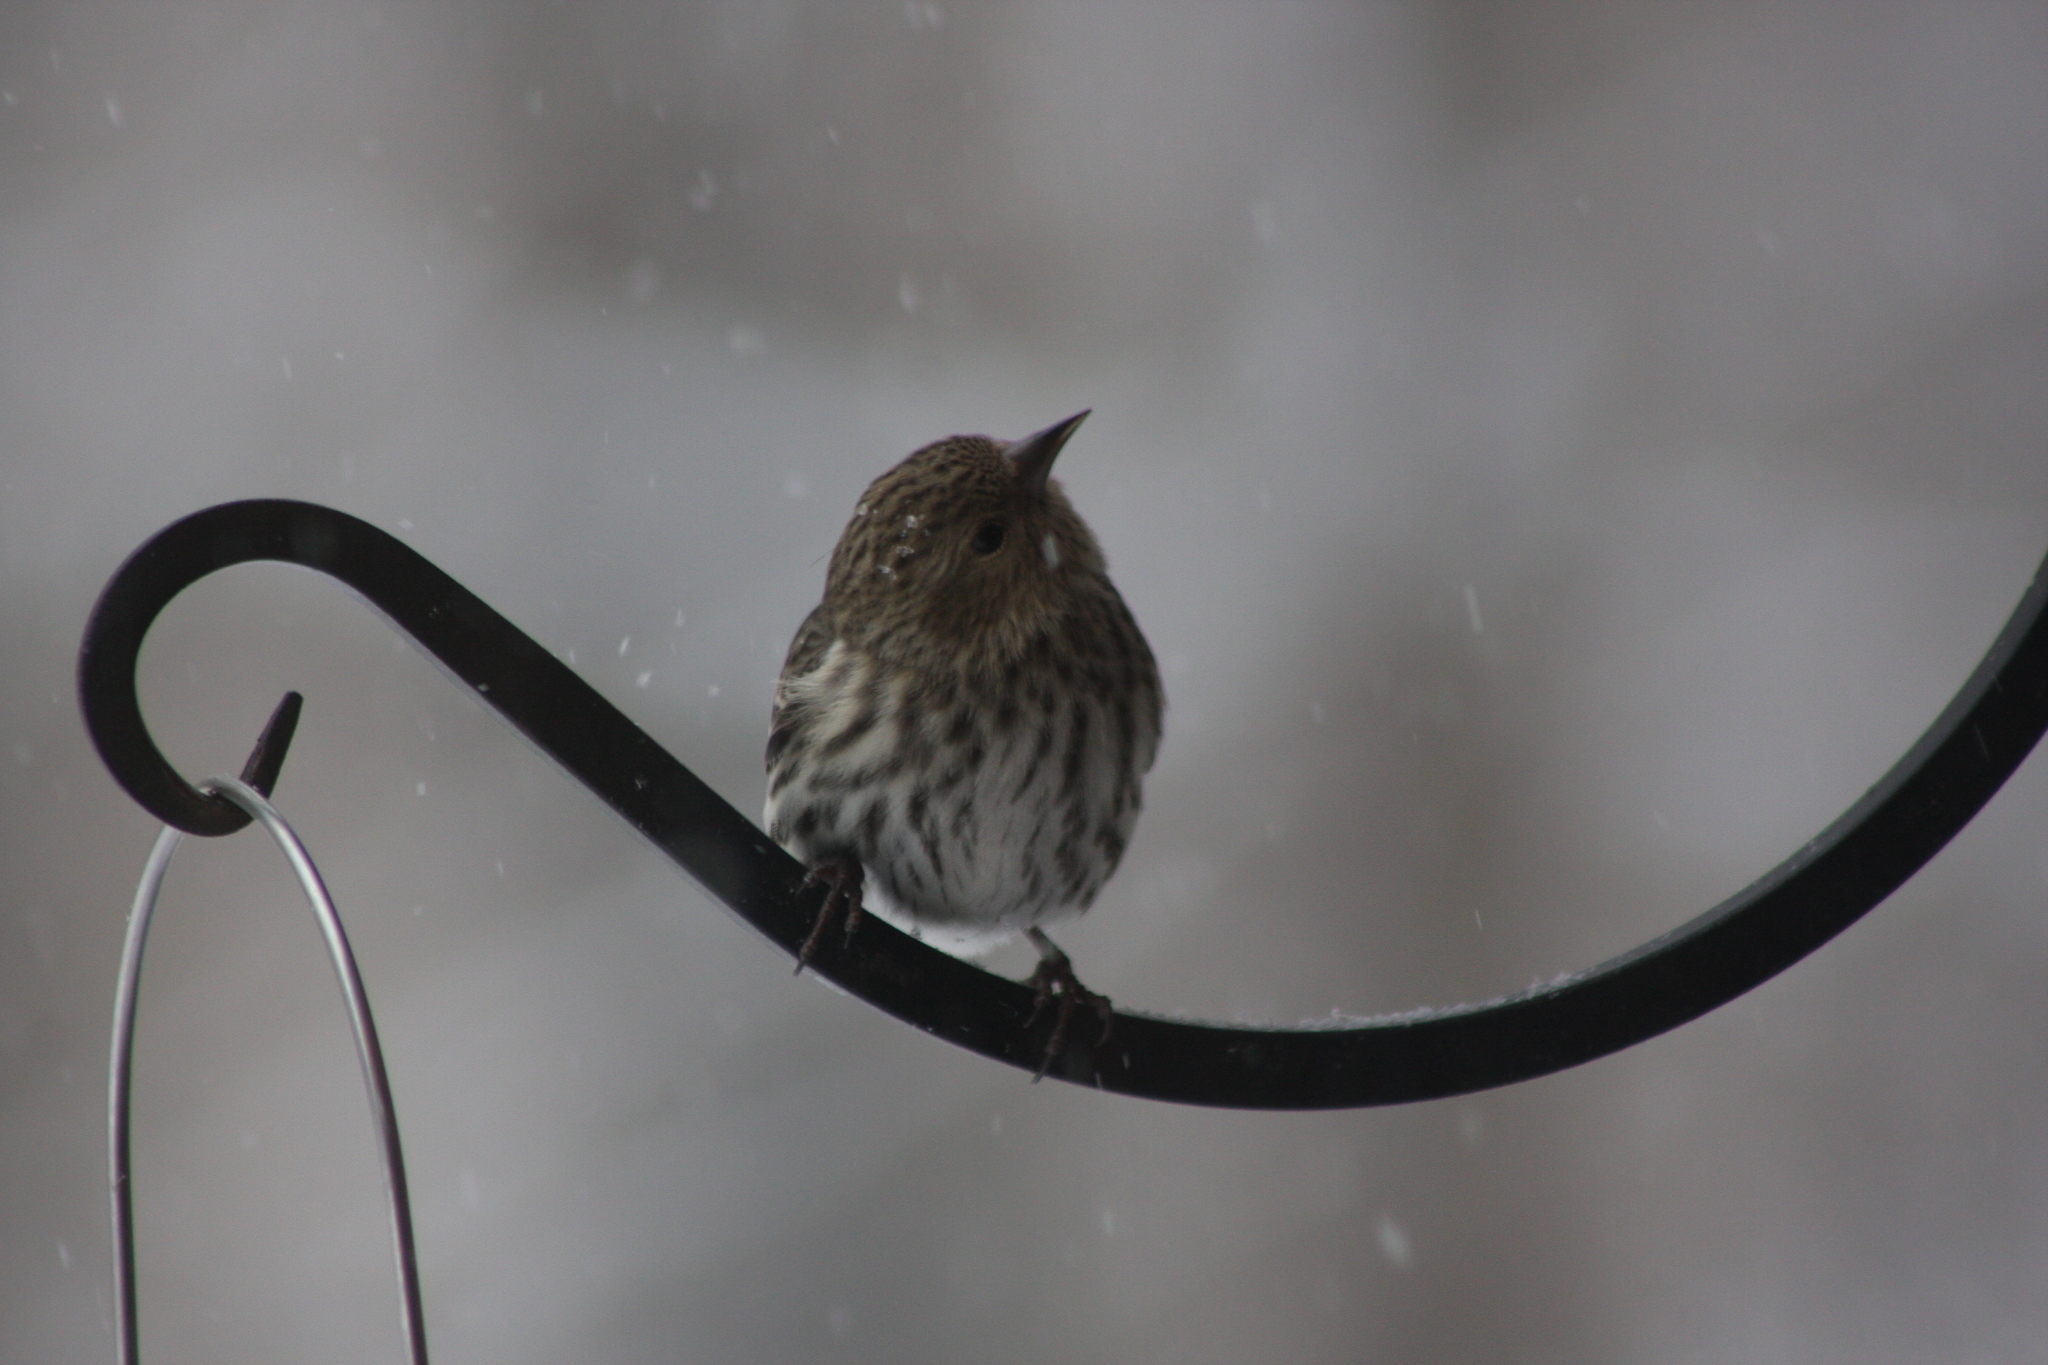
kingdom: Animalia
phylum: Chordata
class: Aves
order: Passeriformes
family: Fringillidae
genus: Spinus
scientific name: Spinus pinus
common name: Pine siskin
